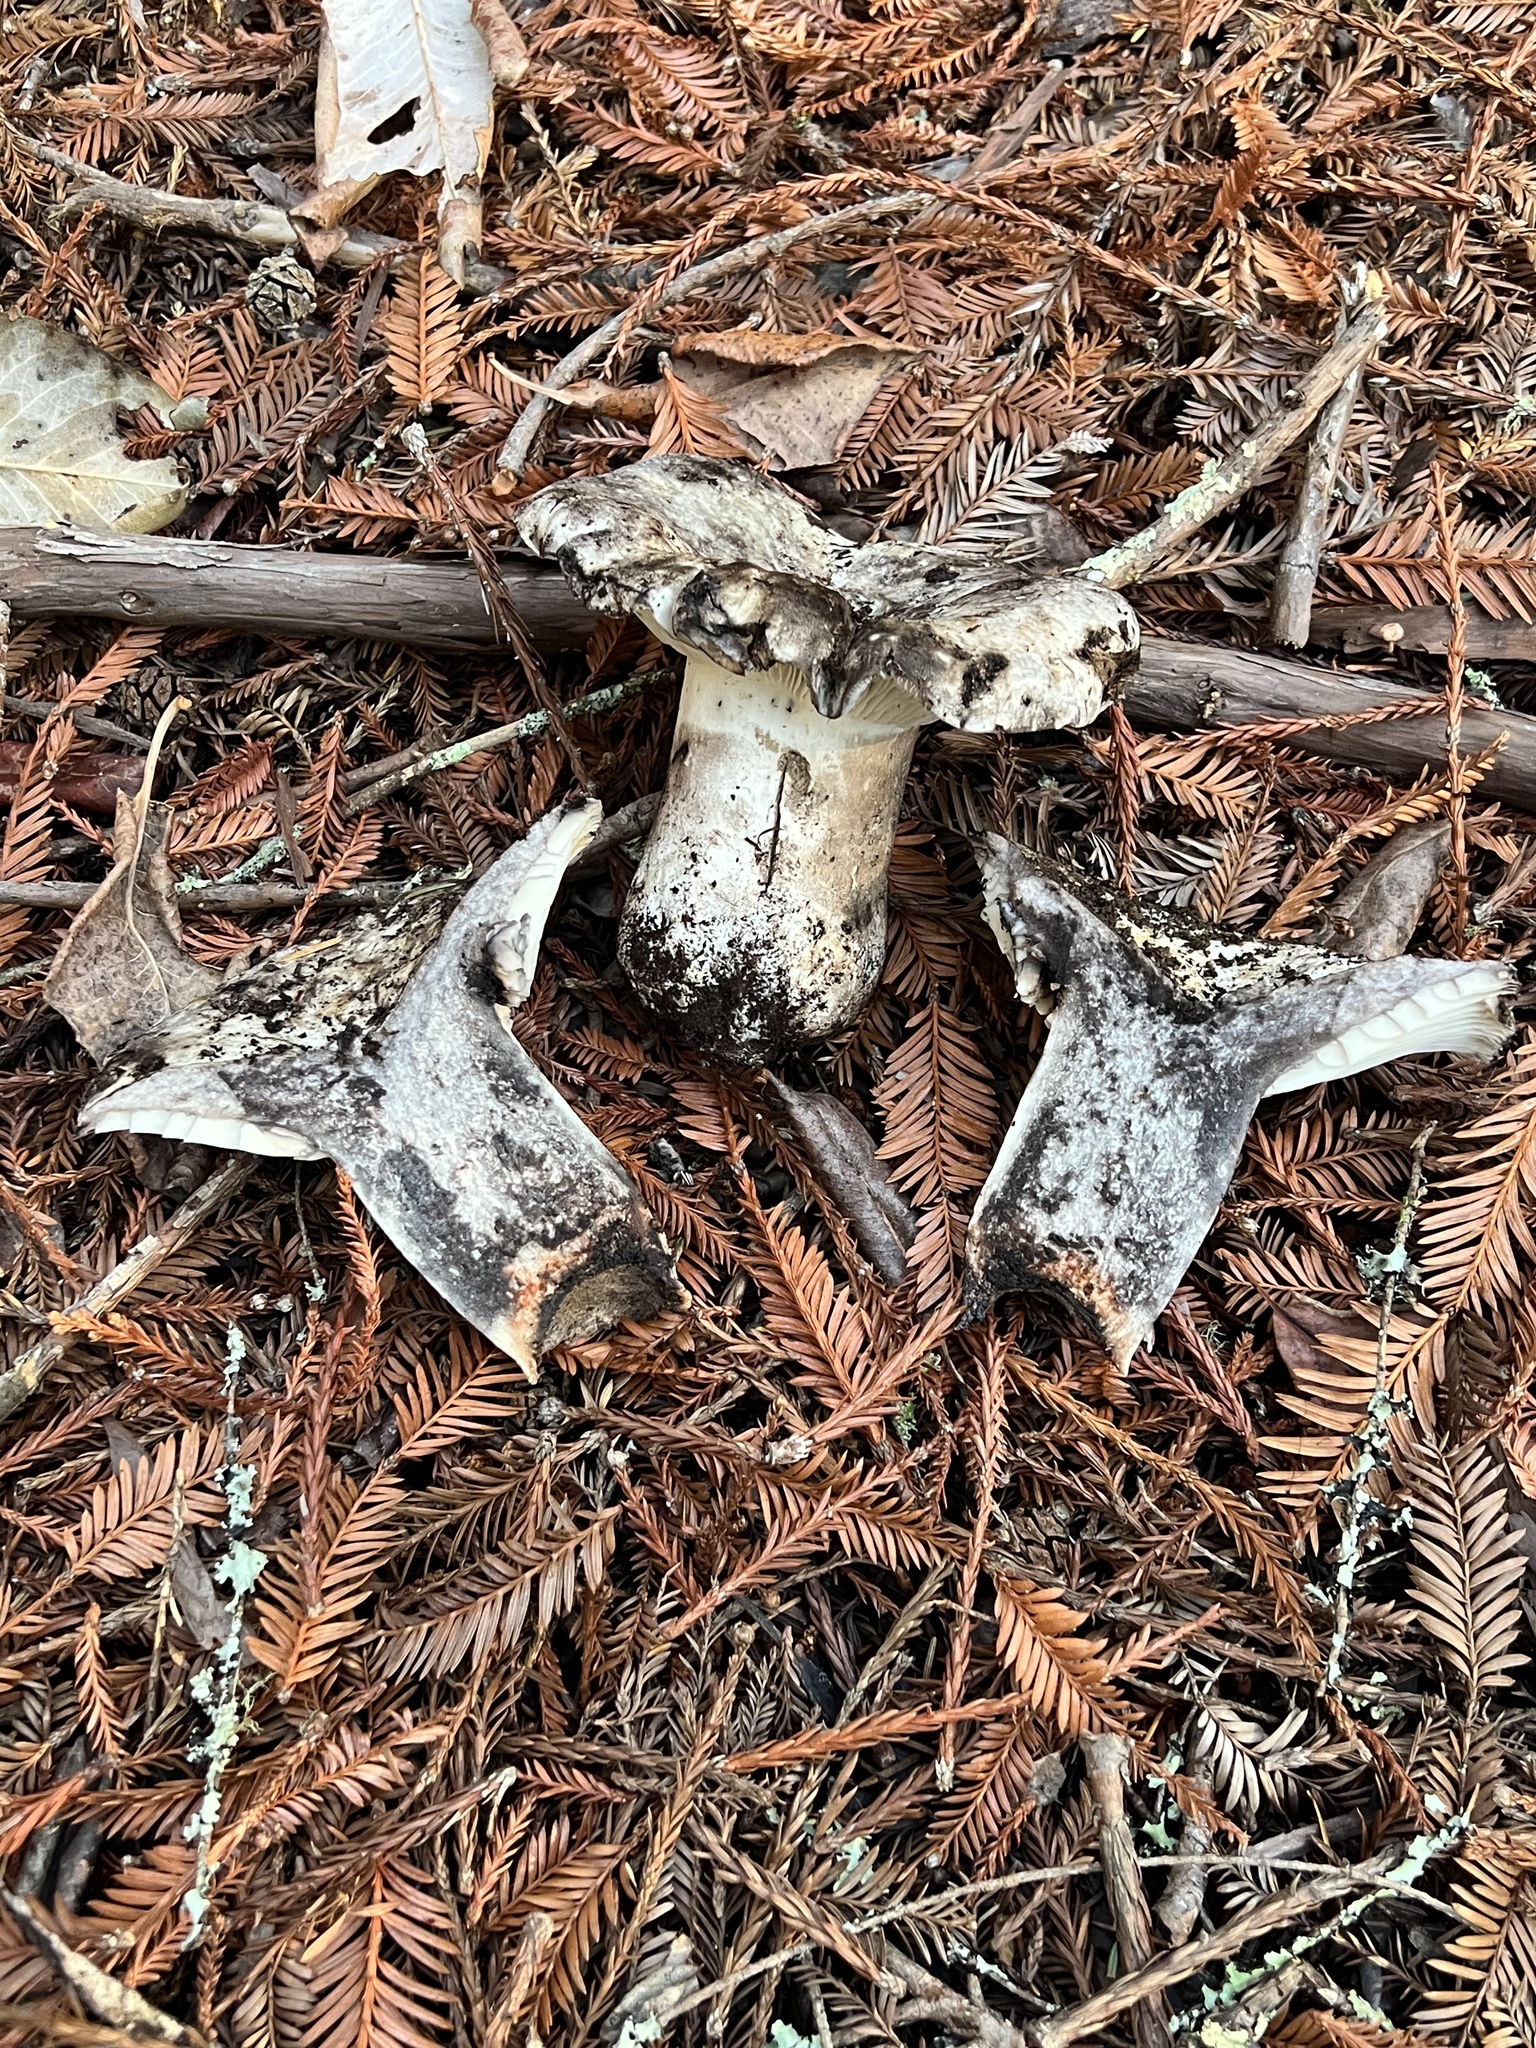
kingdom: Fungi
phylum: Basidiomycota
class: Agaricomycetes
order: Russulales
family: Russulaceae
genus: Russula
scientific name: Russula albonigra
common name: Menthol brittlegill
